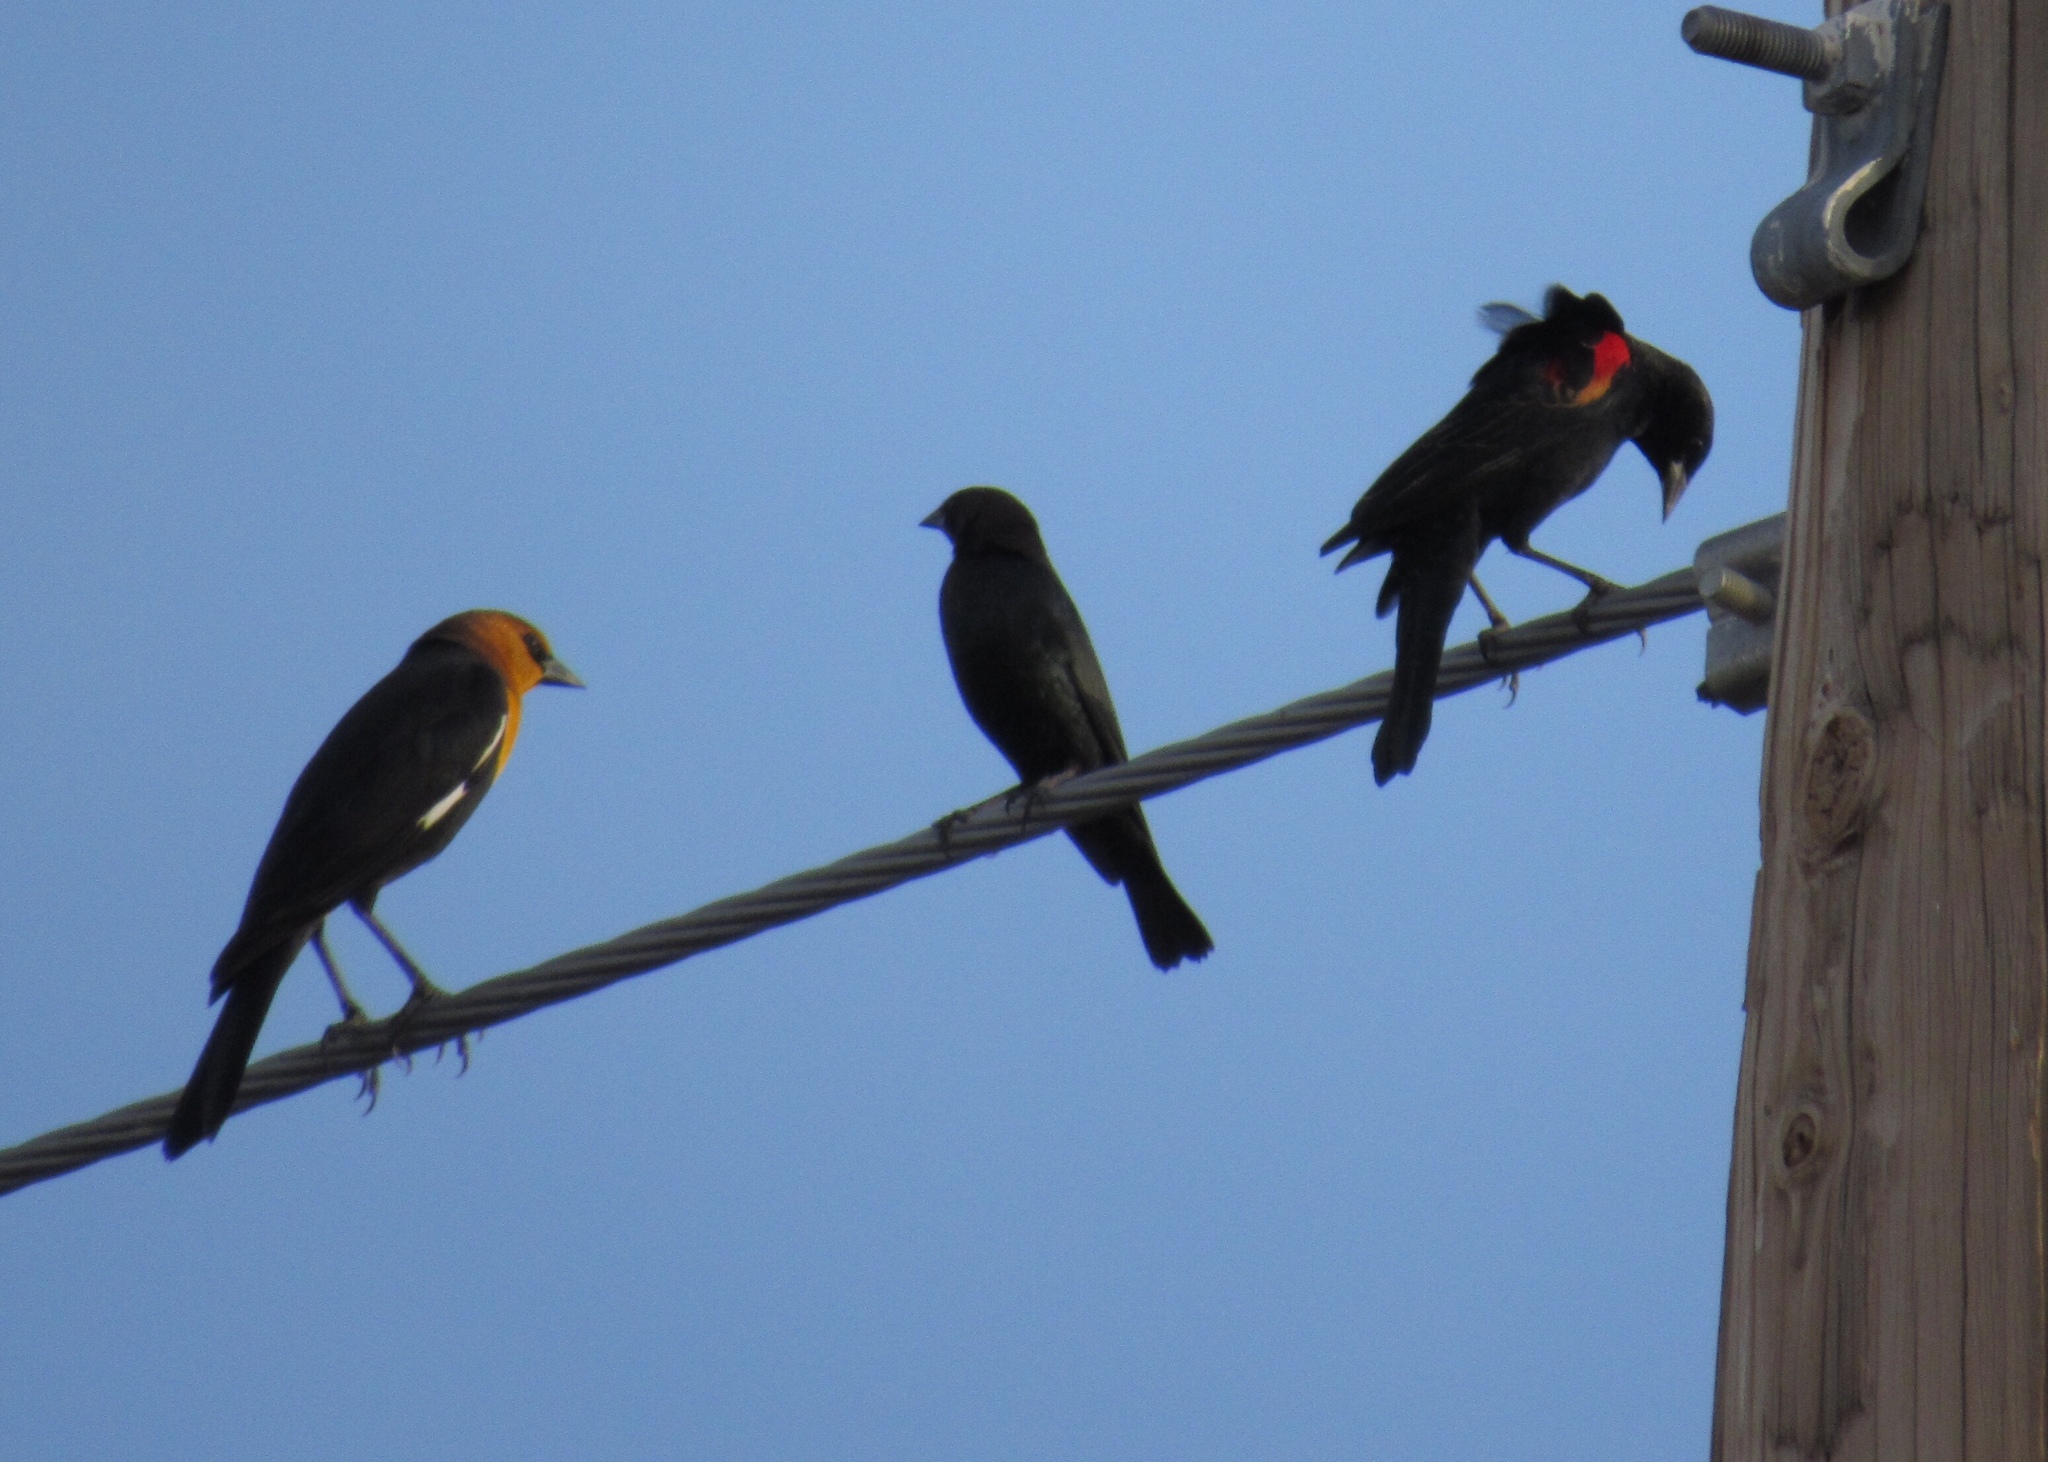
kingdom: Animalia
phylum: Chordata
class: Aves
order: Passeriformes
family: Icteridae
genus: Agelaius
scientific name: Agelaius phoeniceus
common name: Red-winged blackbird
